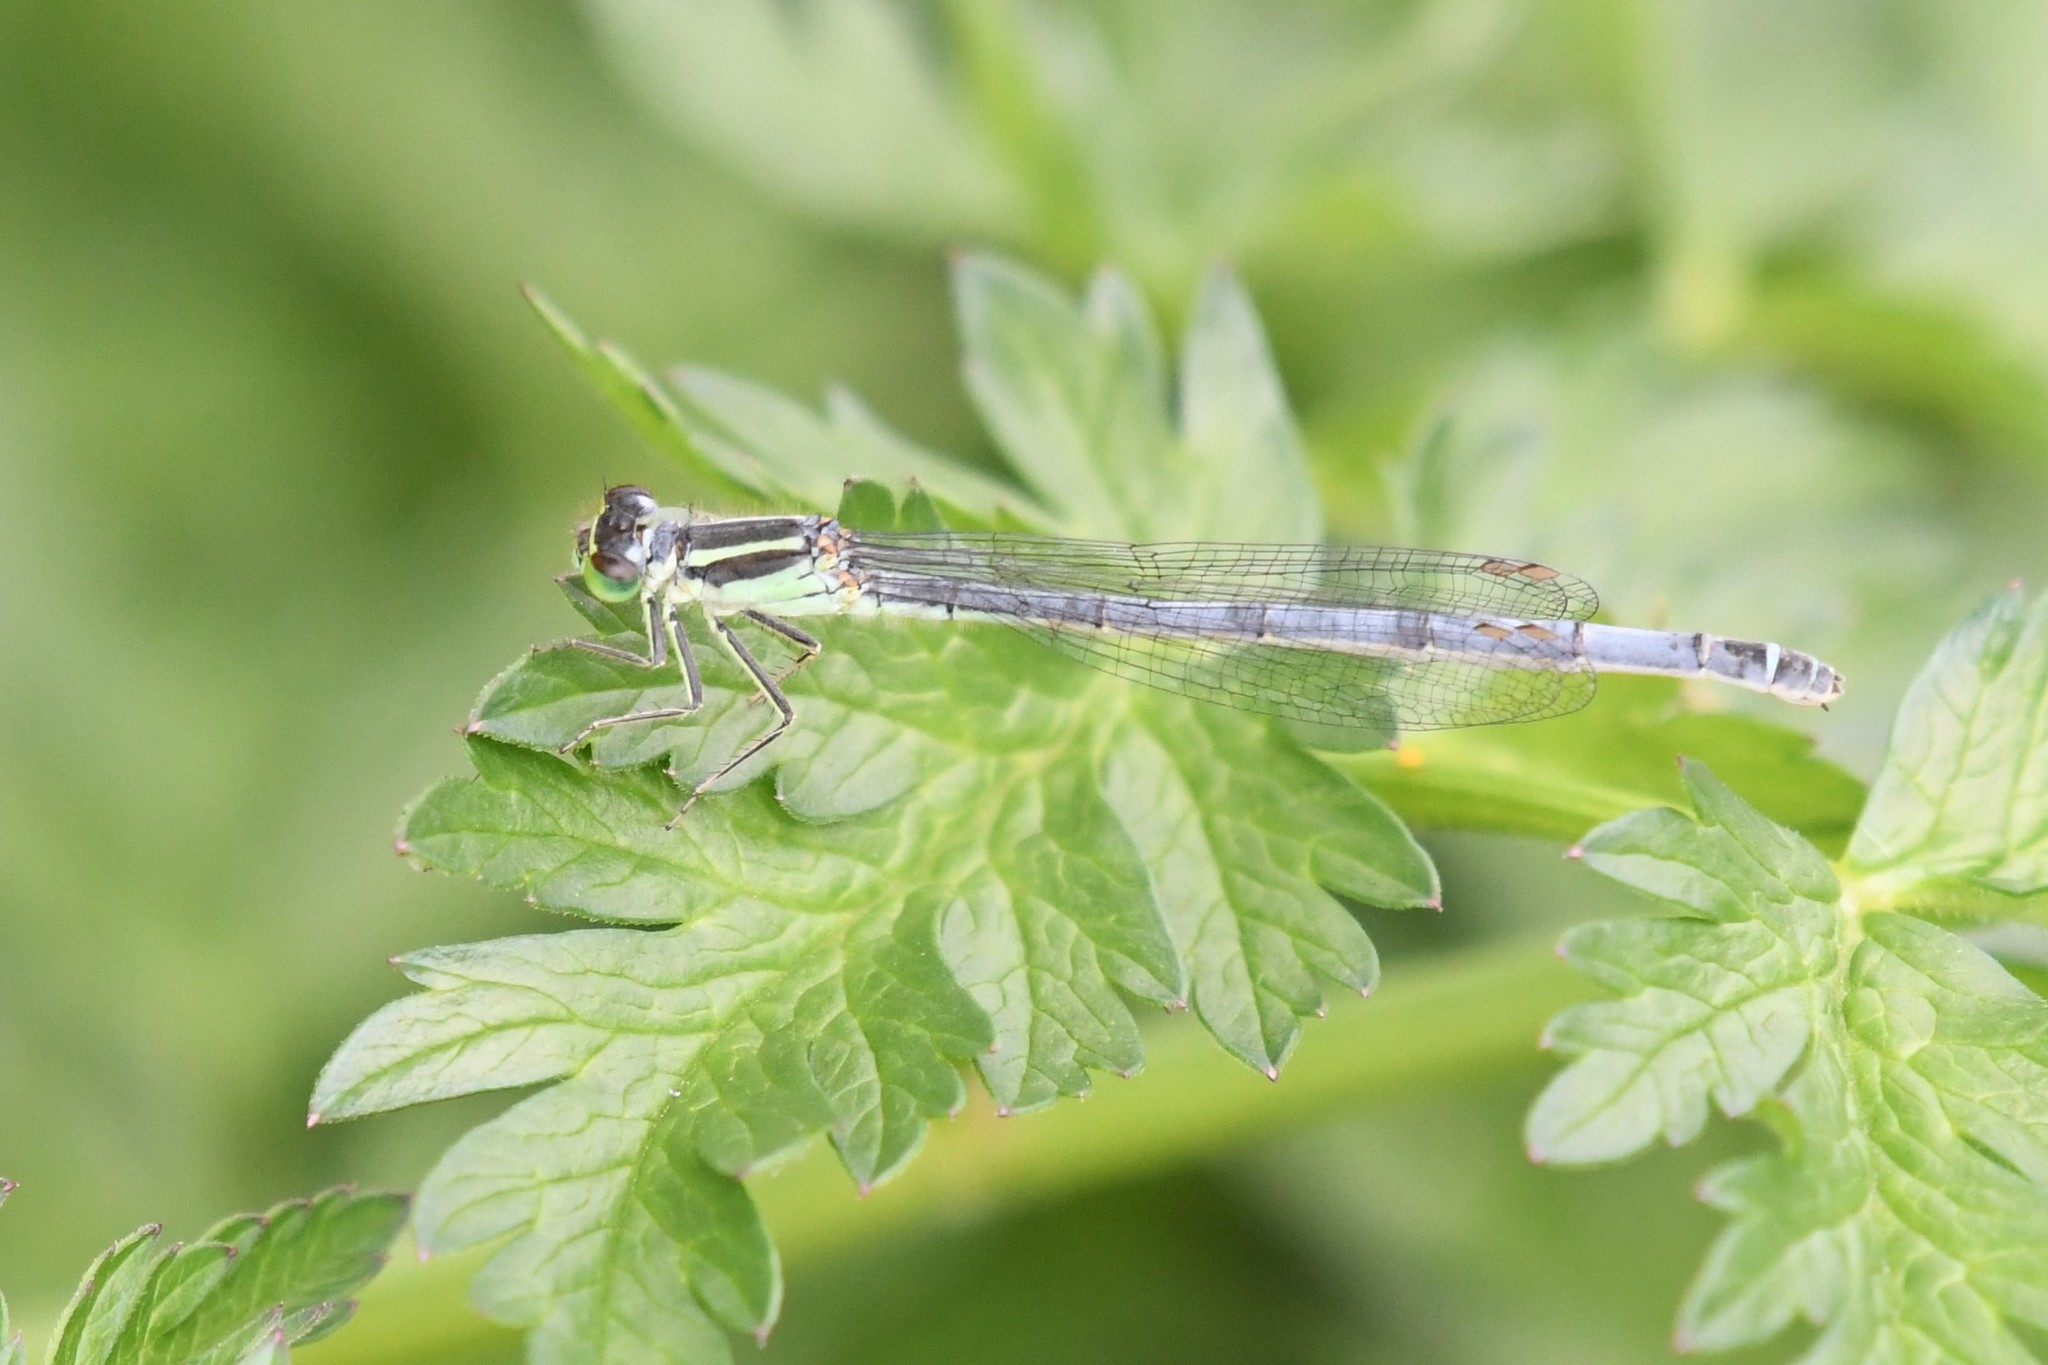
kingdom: Animalia
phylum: Arthropoda
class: Insecta
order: Odonata
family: Coenagrionidae
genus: Ischnura
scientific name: Ischnura verticalis
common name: Eastern forktail
